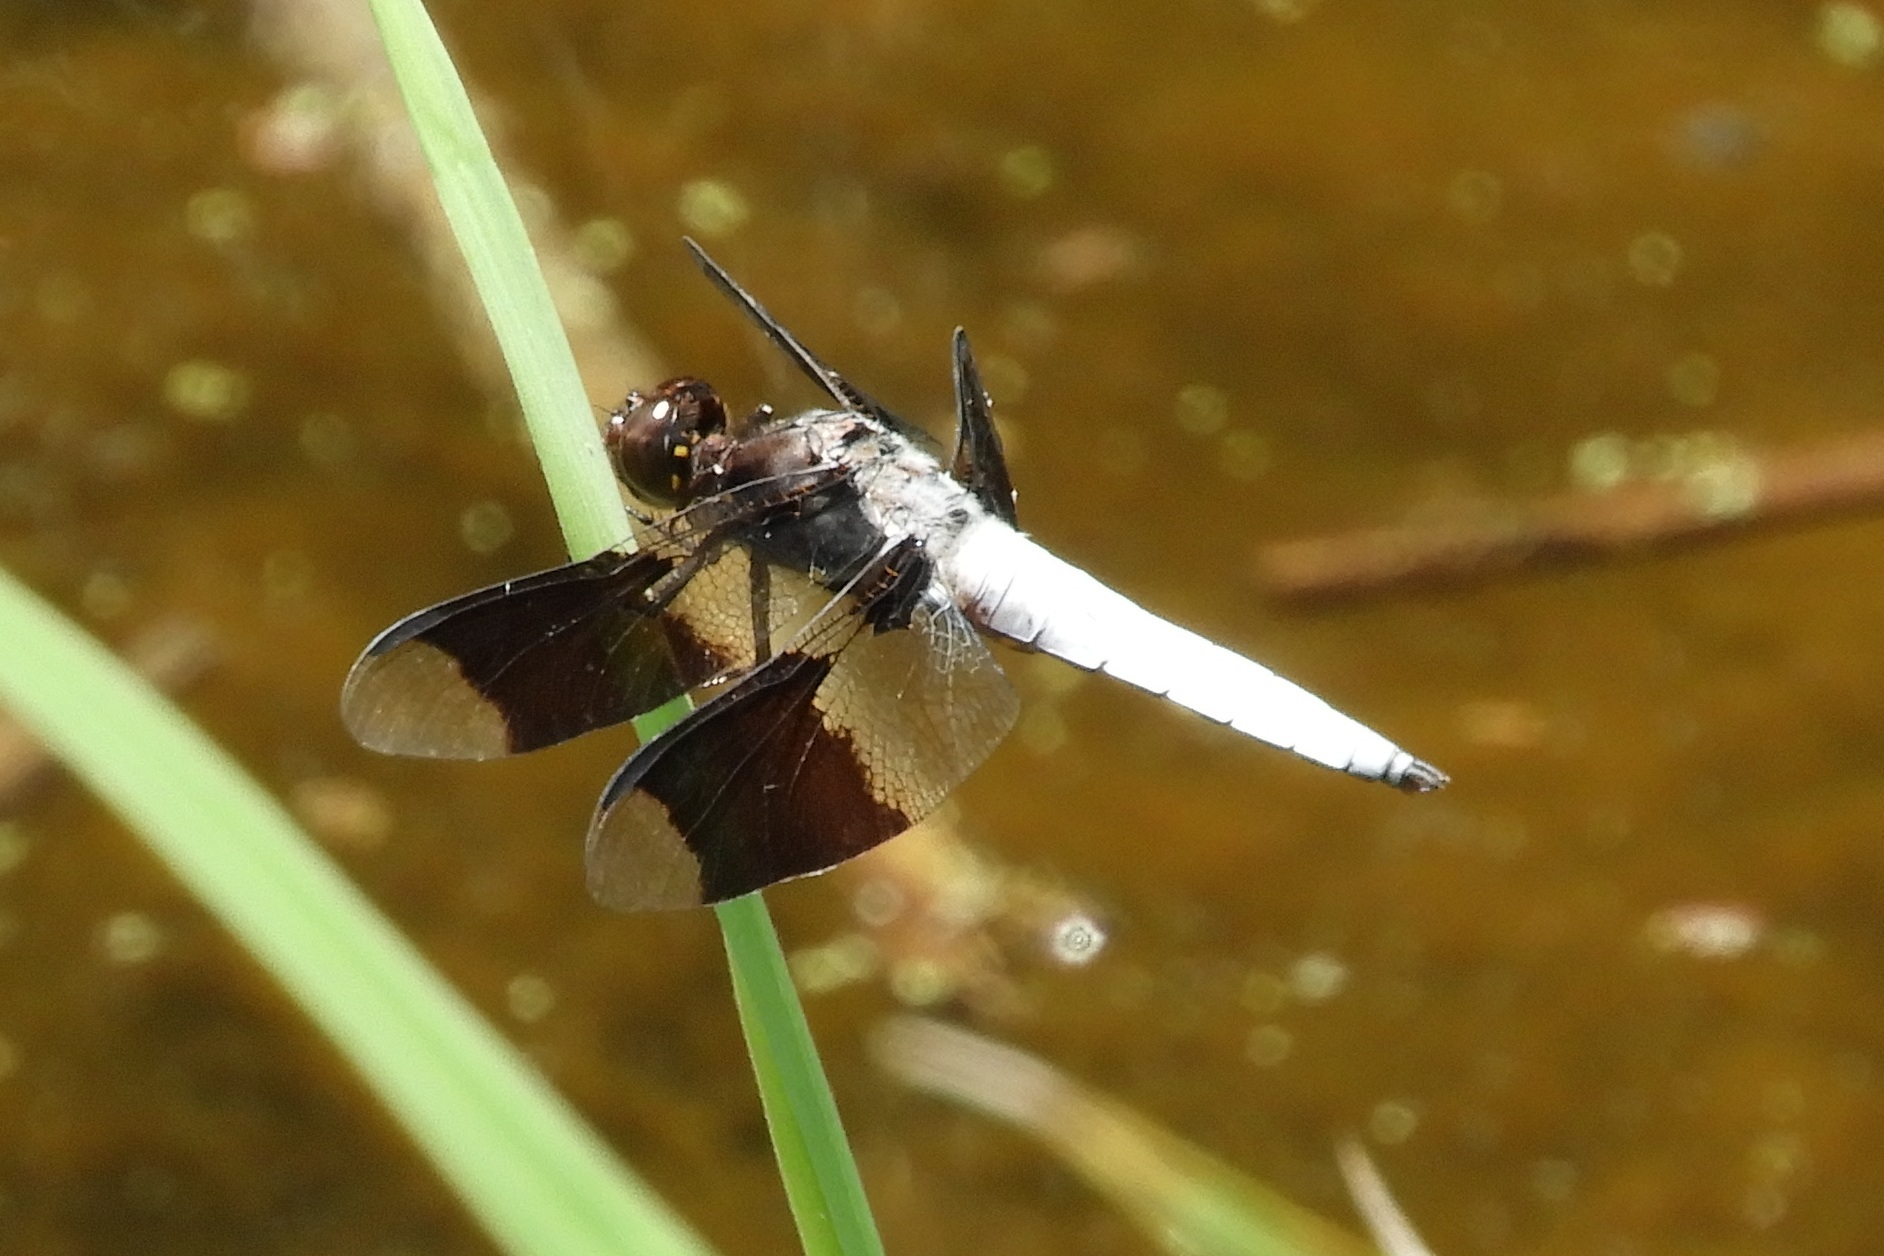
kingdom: Animalia
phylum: Arthropoda
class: Insecta
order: Odonata
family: Libellulidae
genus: Plathemis
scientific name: Plathemis lydia
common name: Common whitetail
